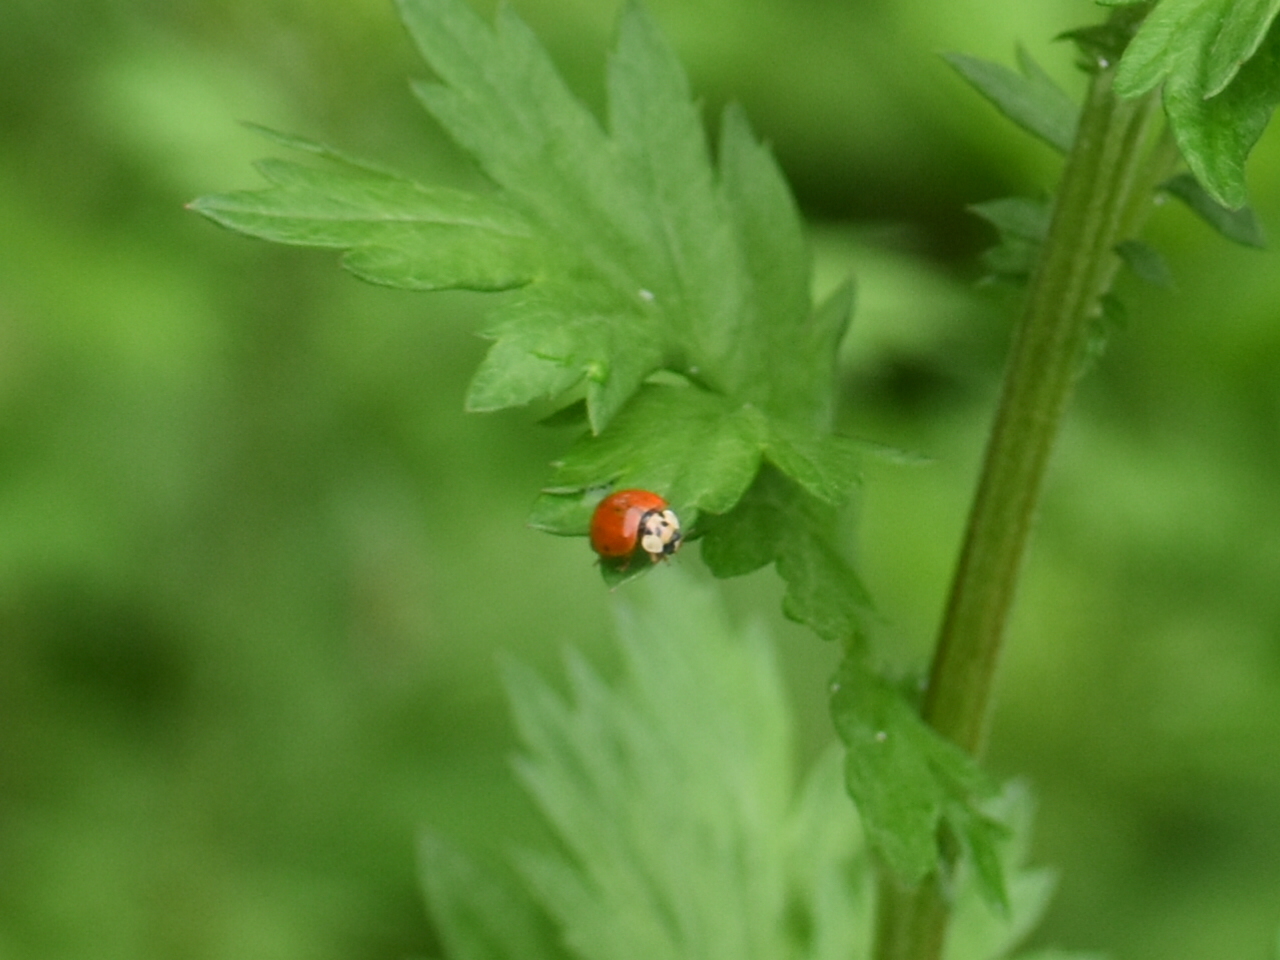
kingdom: Animalia
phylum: Arthropoda
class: Insecta
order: Coleoptera
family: Coccinellidae
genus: Harmonia
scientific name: Harmonia axyridis
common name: Harlequin ladybird
